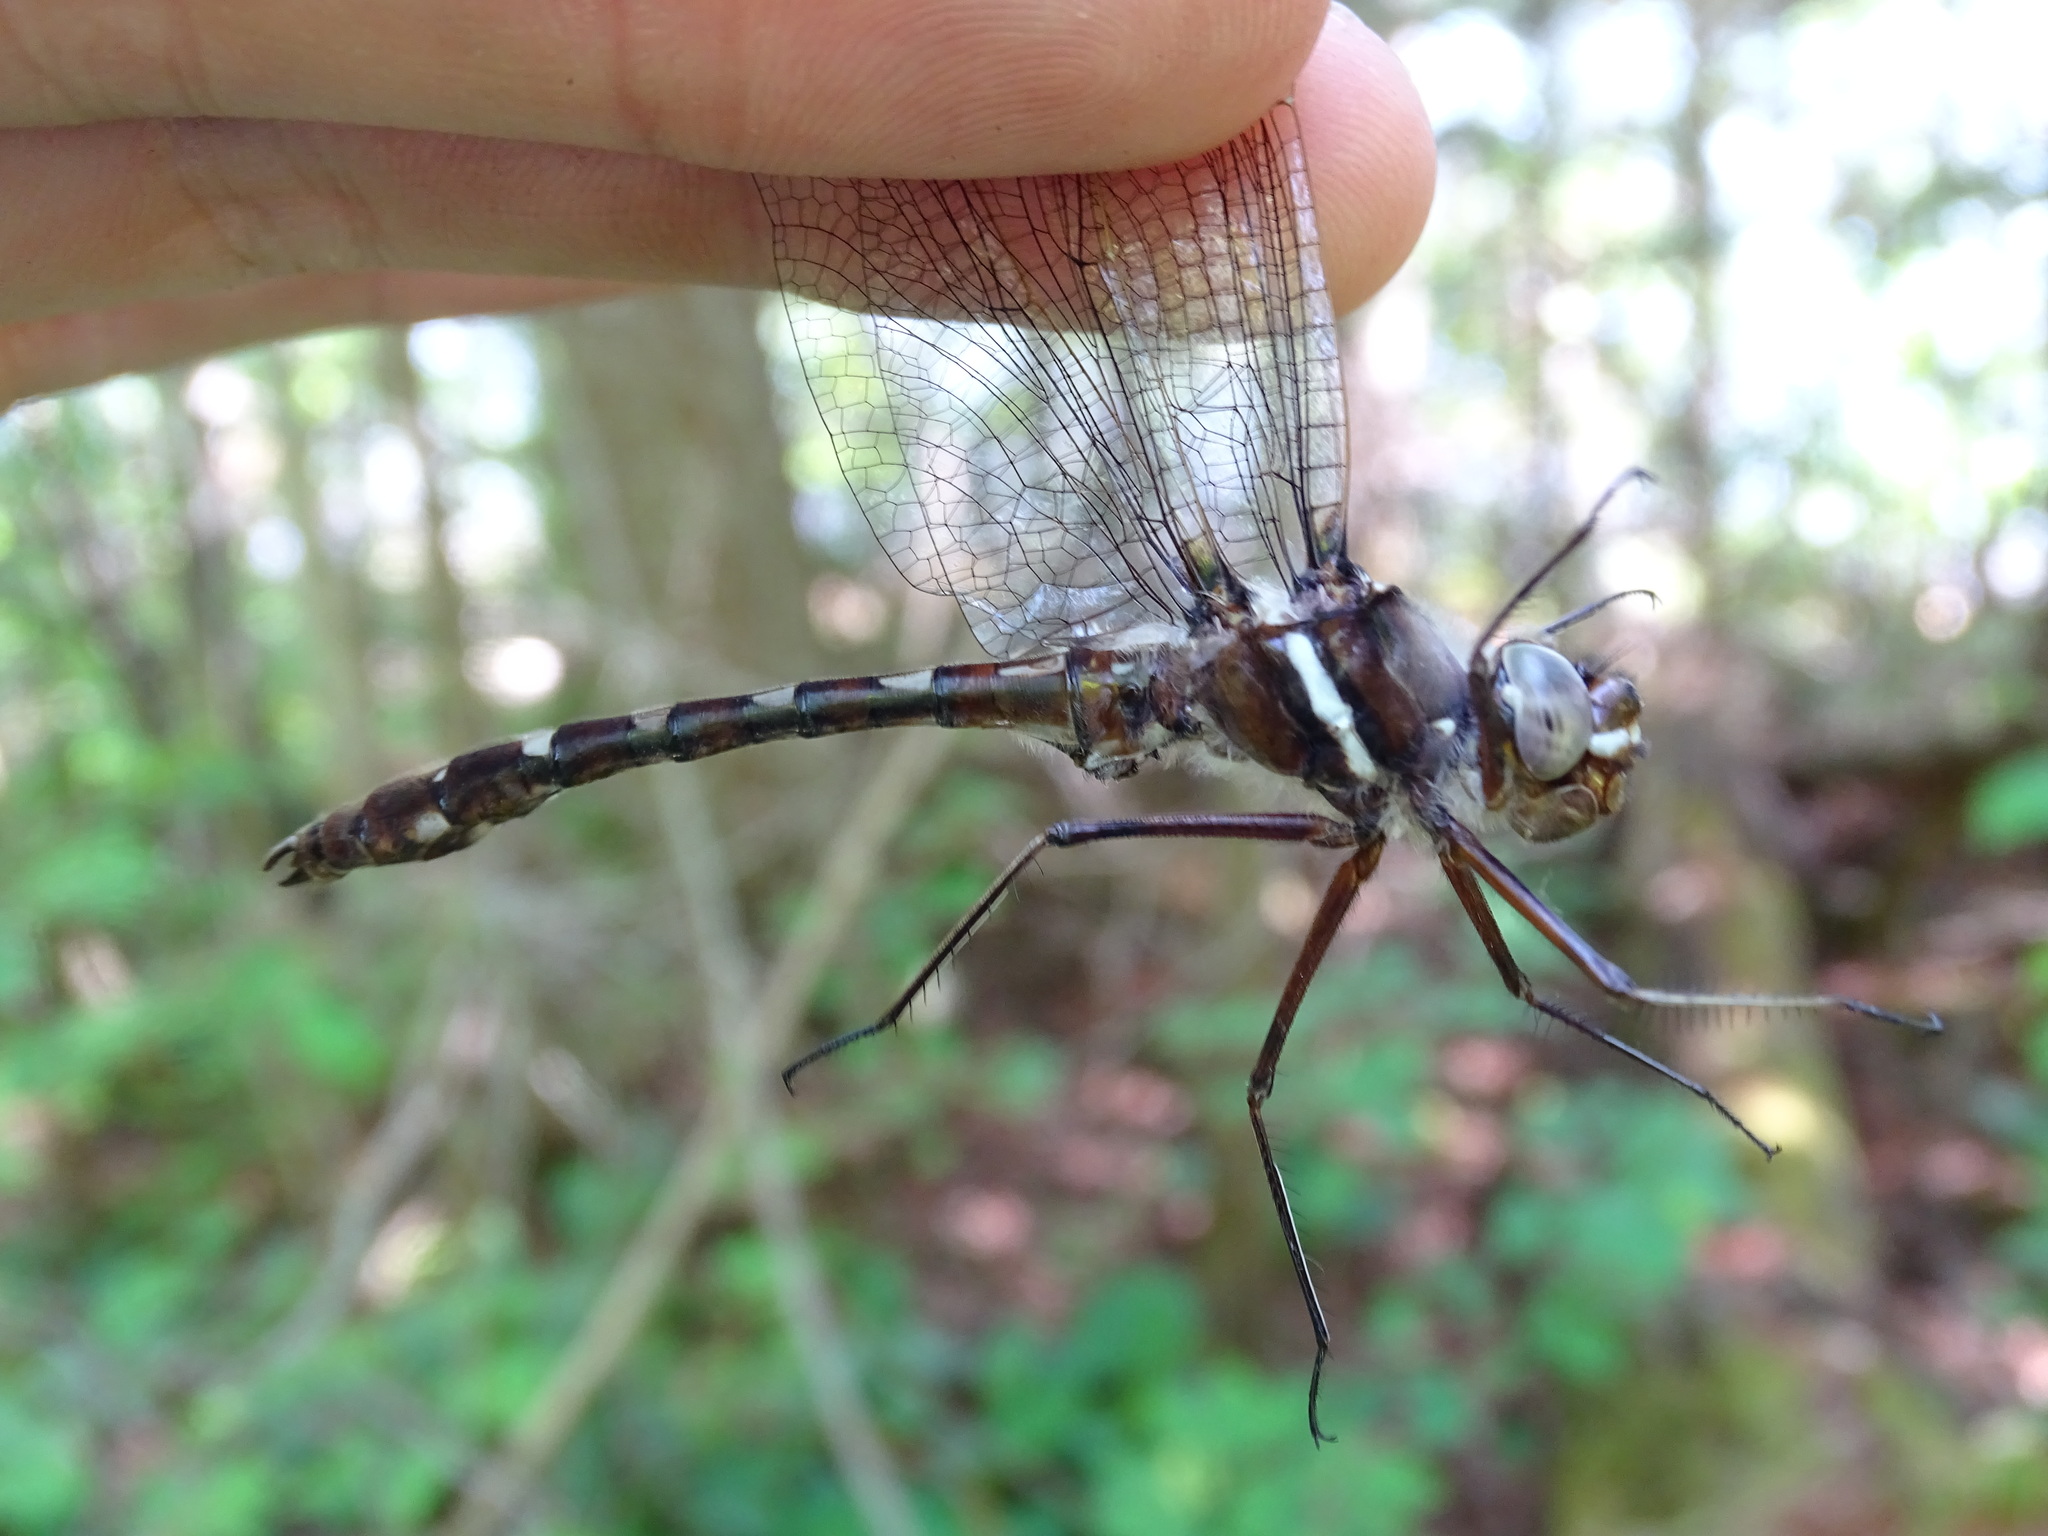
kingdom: Animalia
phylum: Arthropoda
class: Insecta
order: Odonata
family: Macromiidae
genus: Didymops
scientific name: Didymops transversa
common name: Stream cruiser
